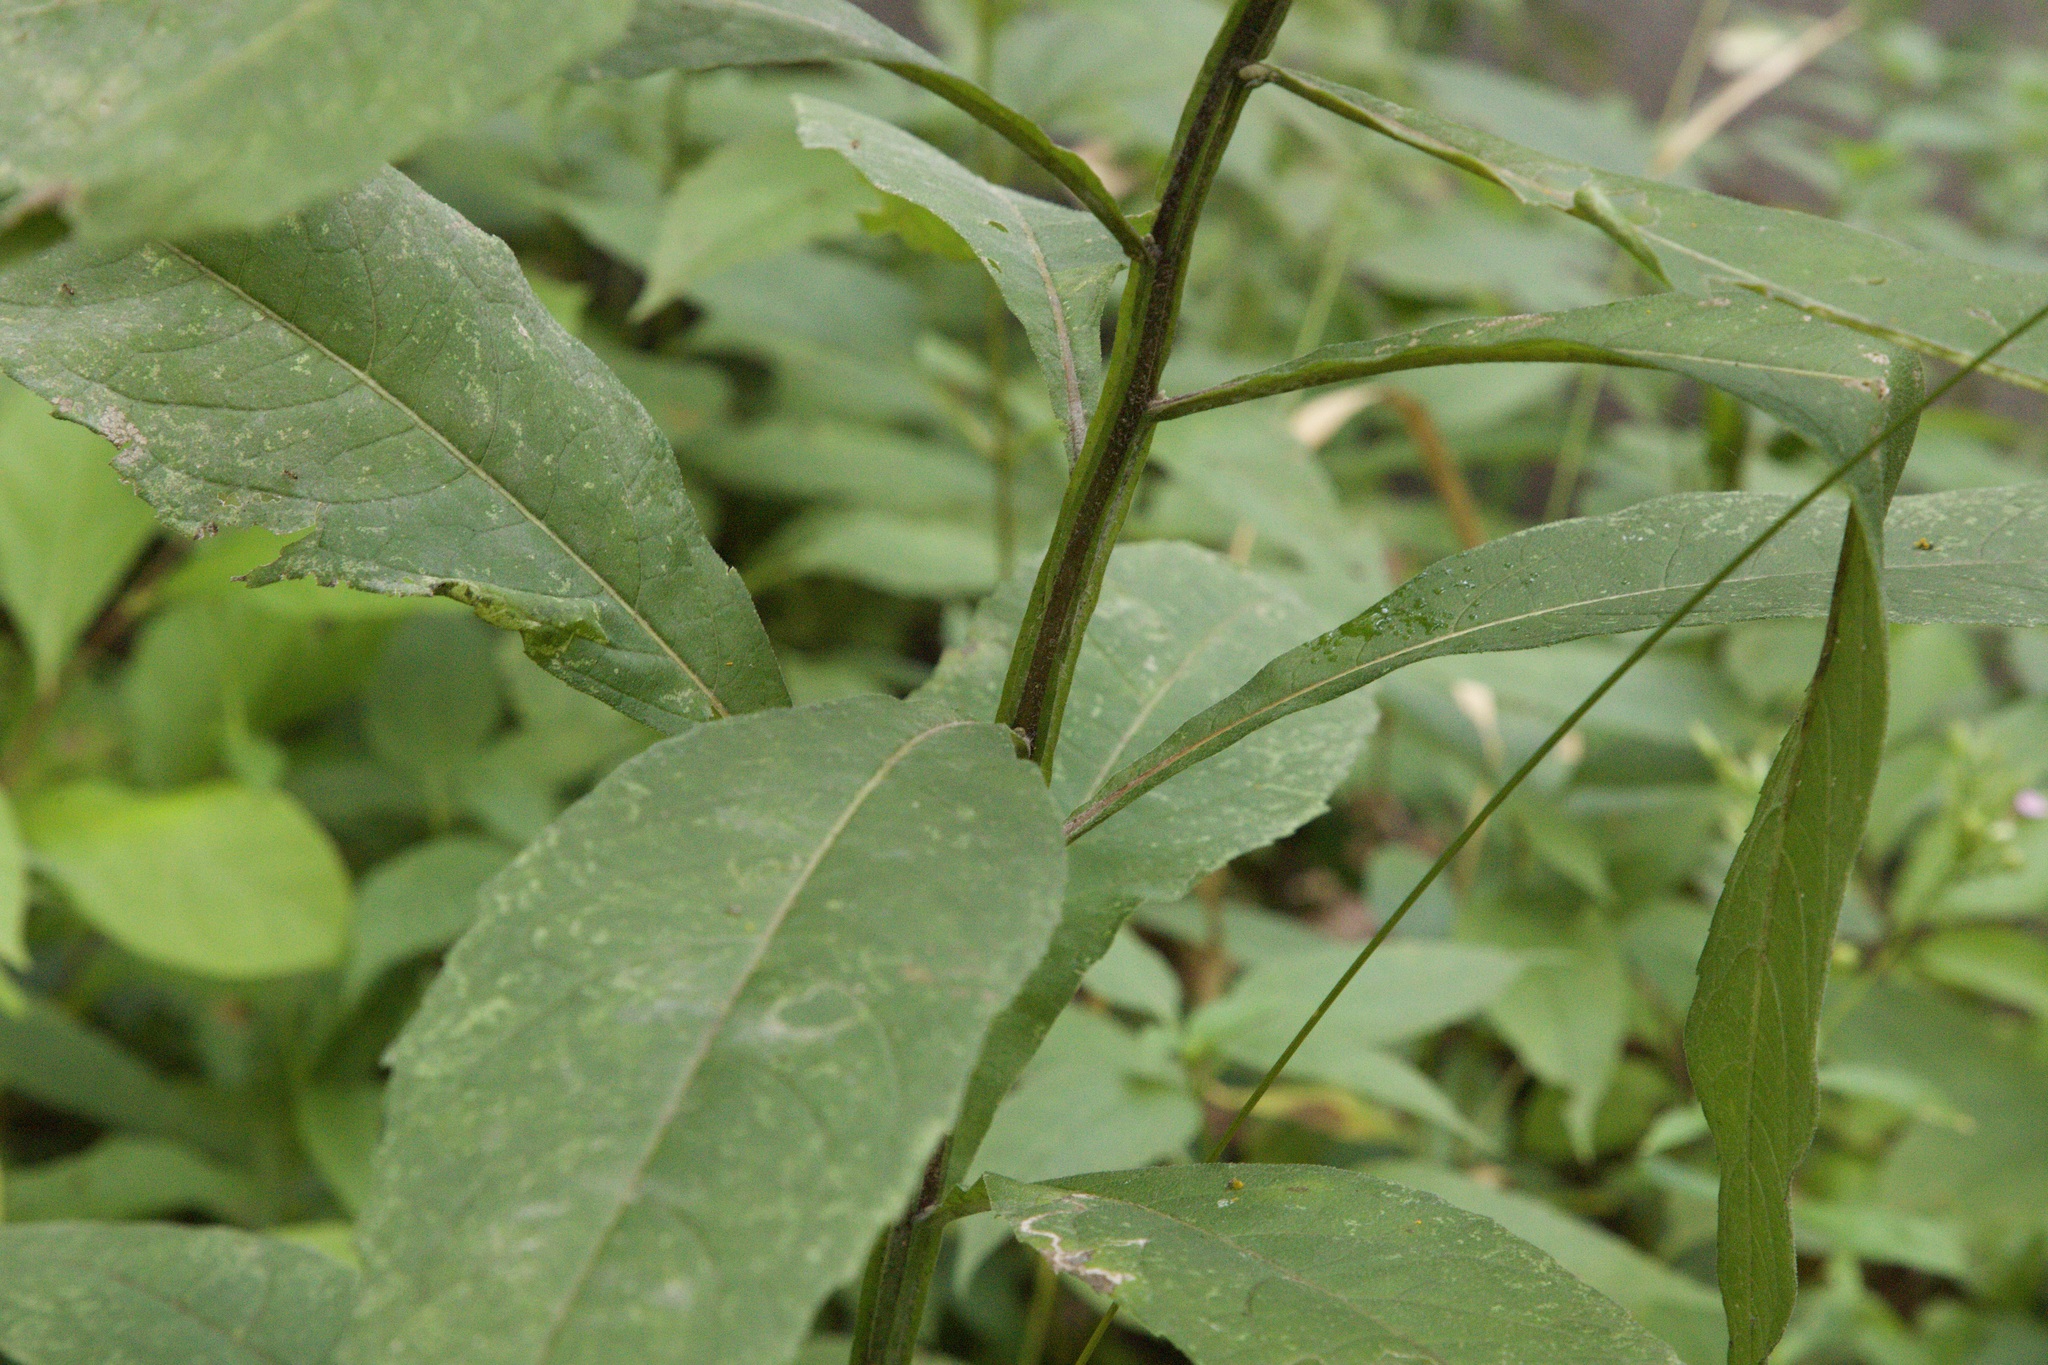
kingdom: Plantae
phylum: Tracheophyta
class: Magnoliopsida
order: Asterales
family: Asteraceae
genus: Verbesina
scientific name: Verbesina alternifolia
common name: Wingstem
